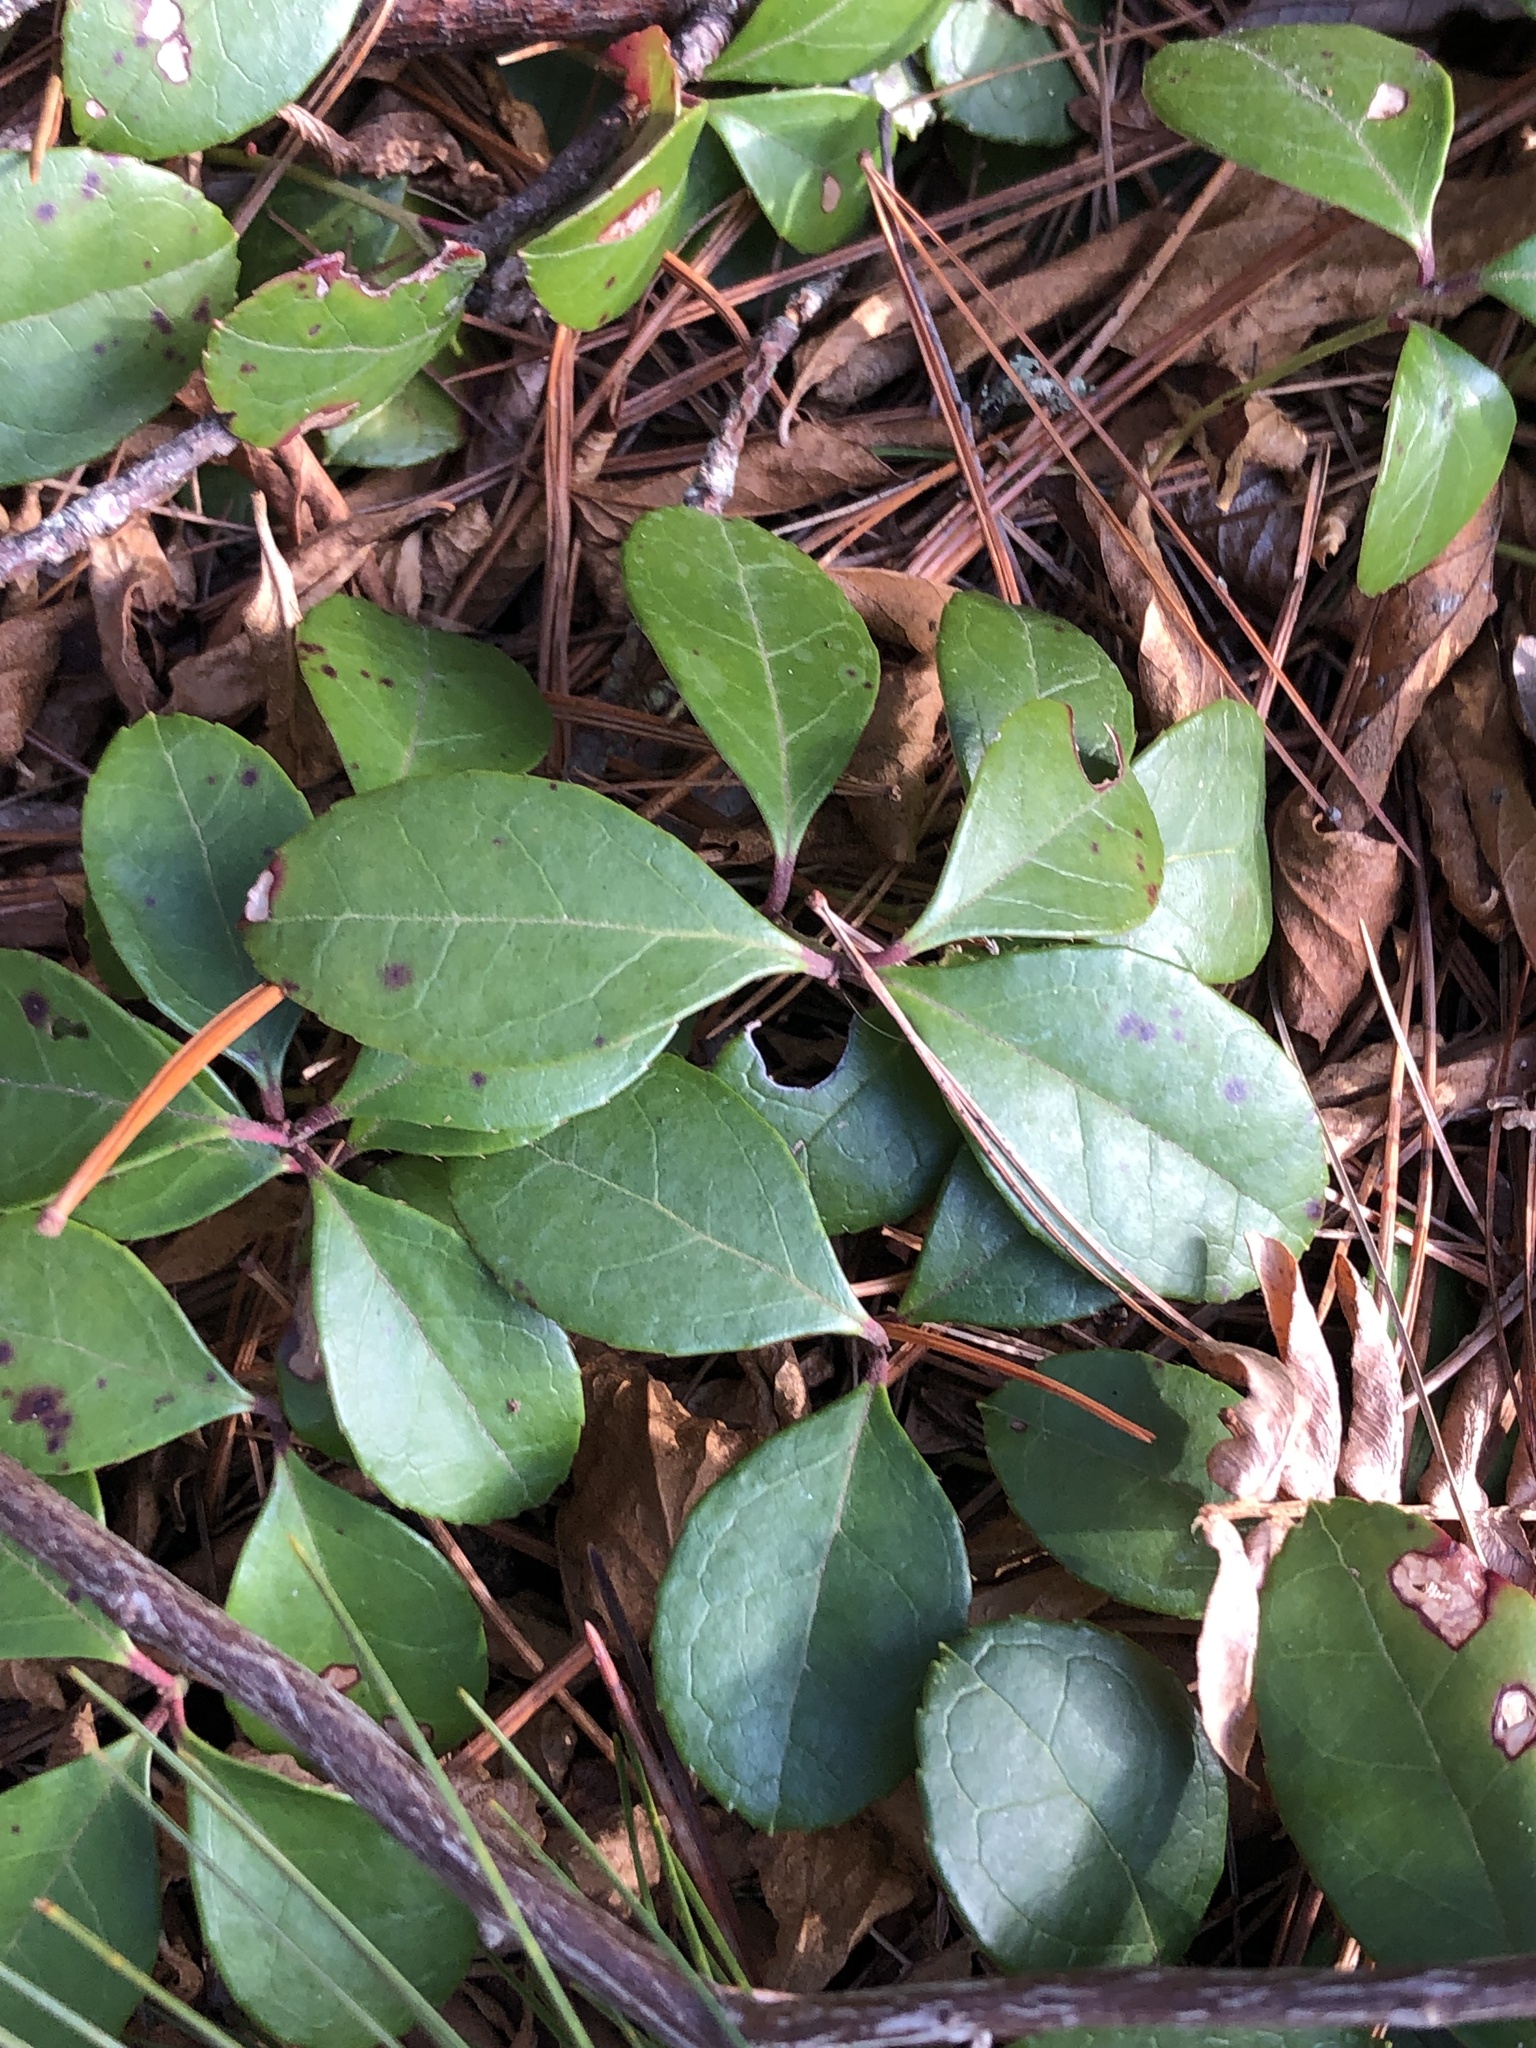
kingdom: Plantae
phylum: Tracheophyta
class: Magnoliopsida
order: Ericales
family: Ericaceae
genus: Gaultheria
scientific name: Gaultheria procumbens
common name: Checkerberry
